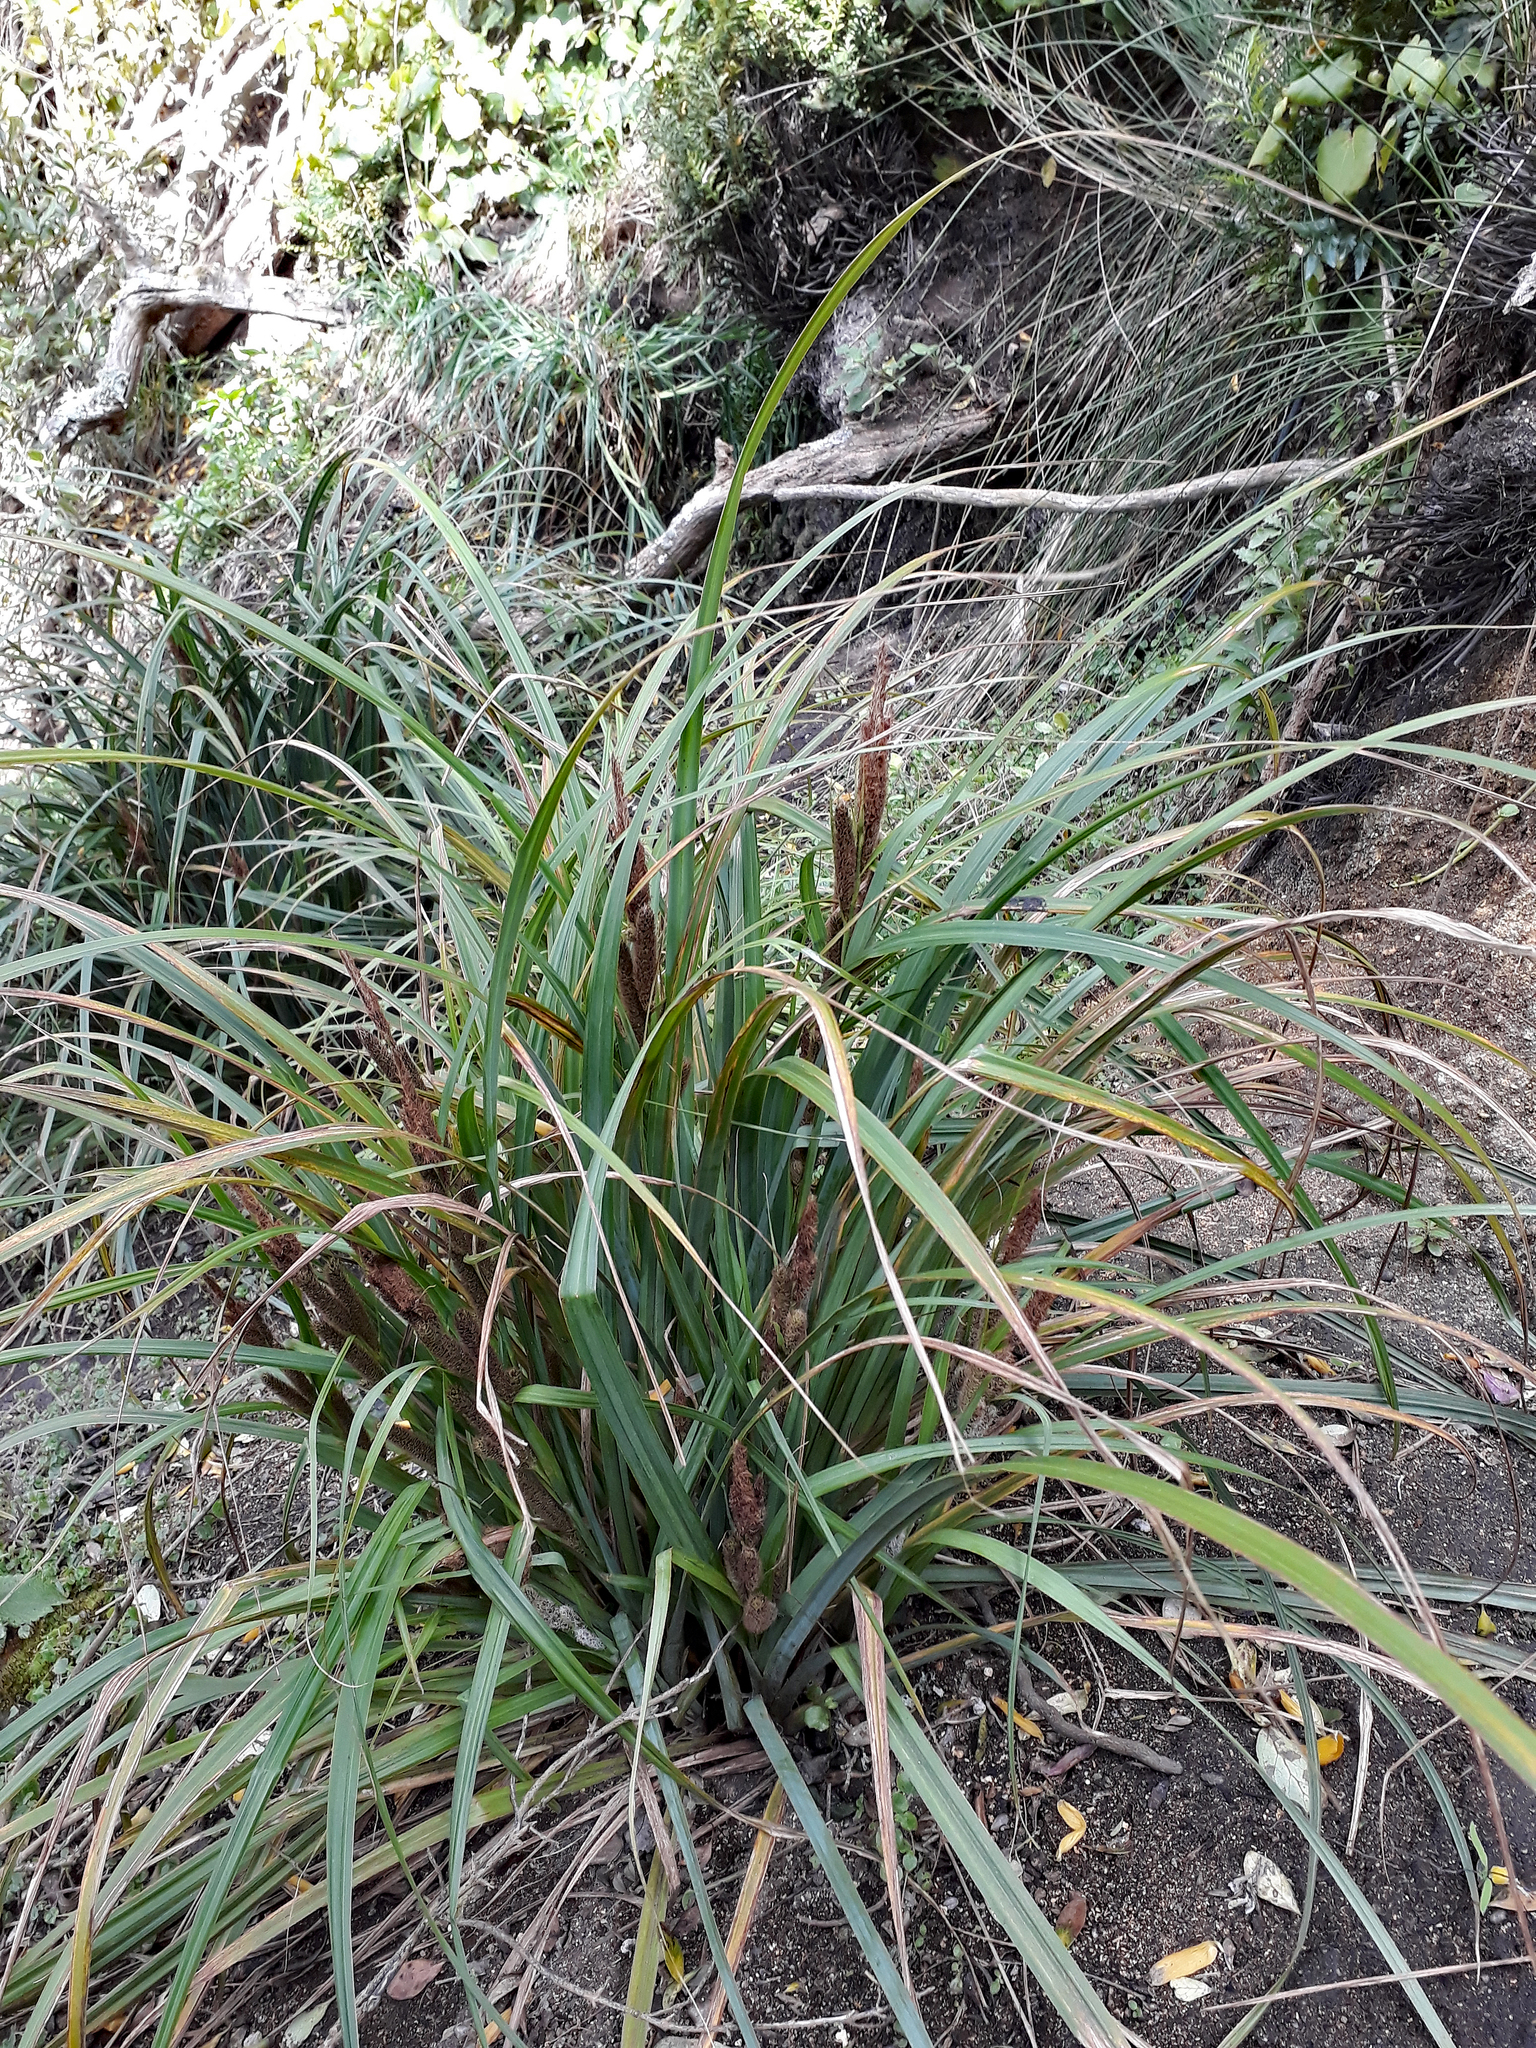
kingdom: Plantae
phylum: Tracheophyta
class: Liliopsida
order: Poales
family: Cyperaceae
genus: Carex
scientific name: Carex ventosa
